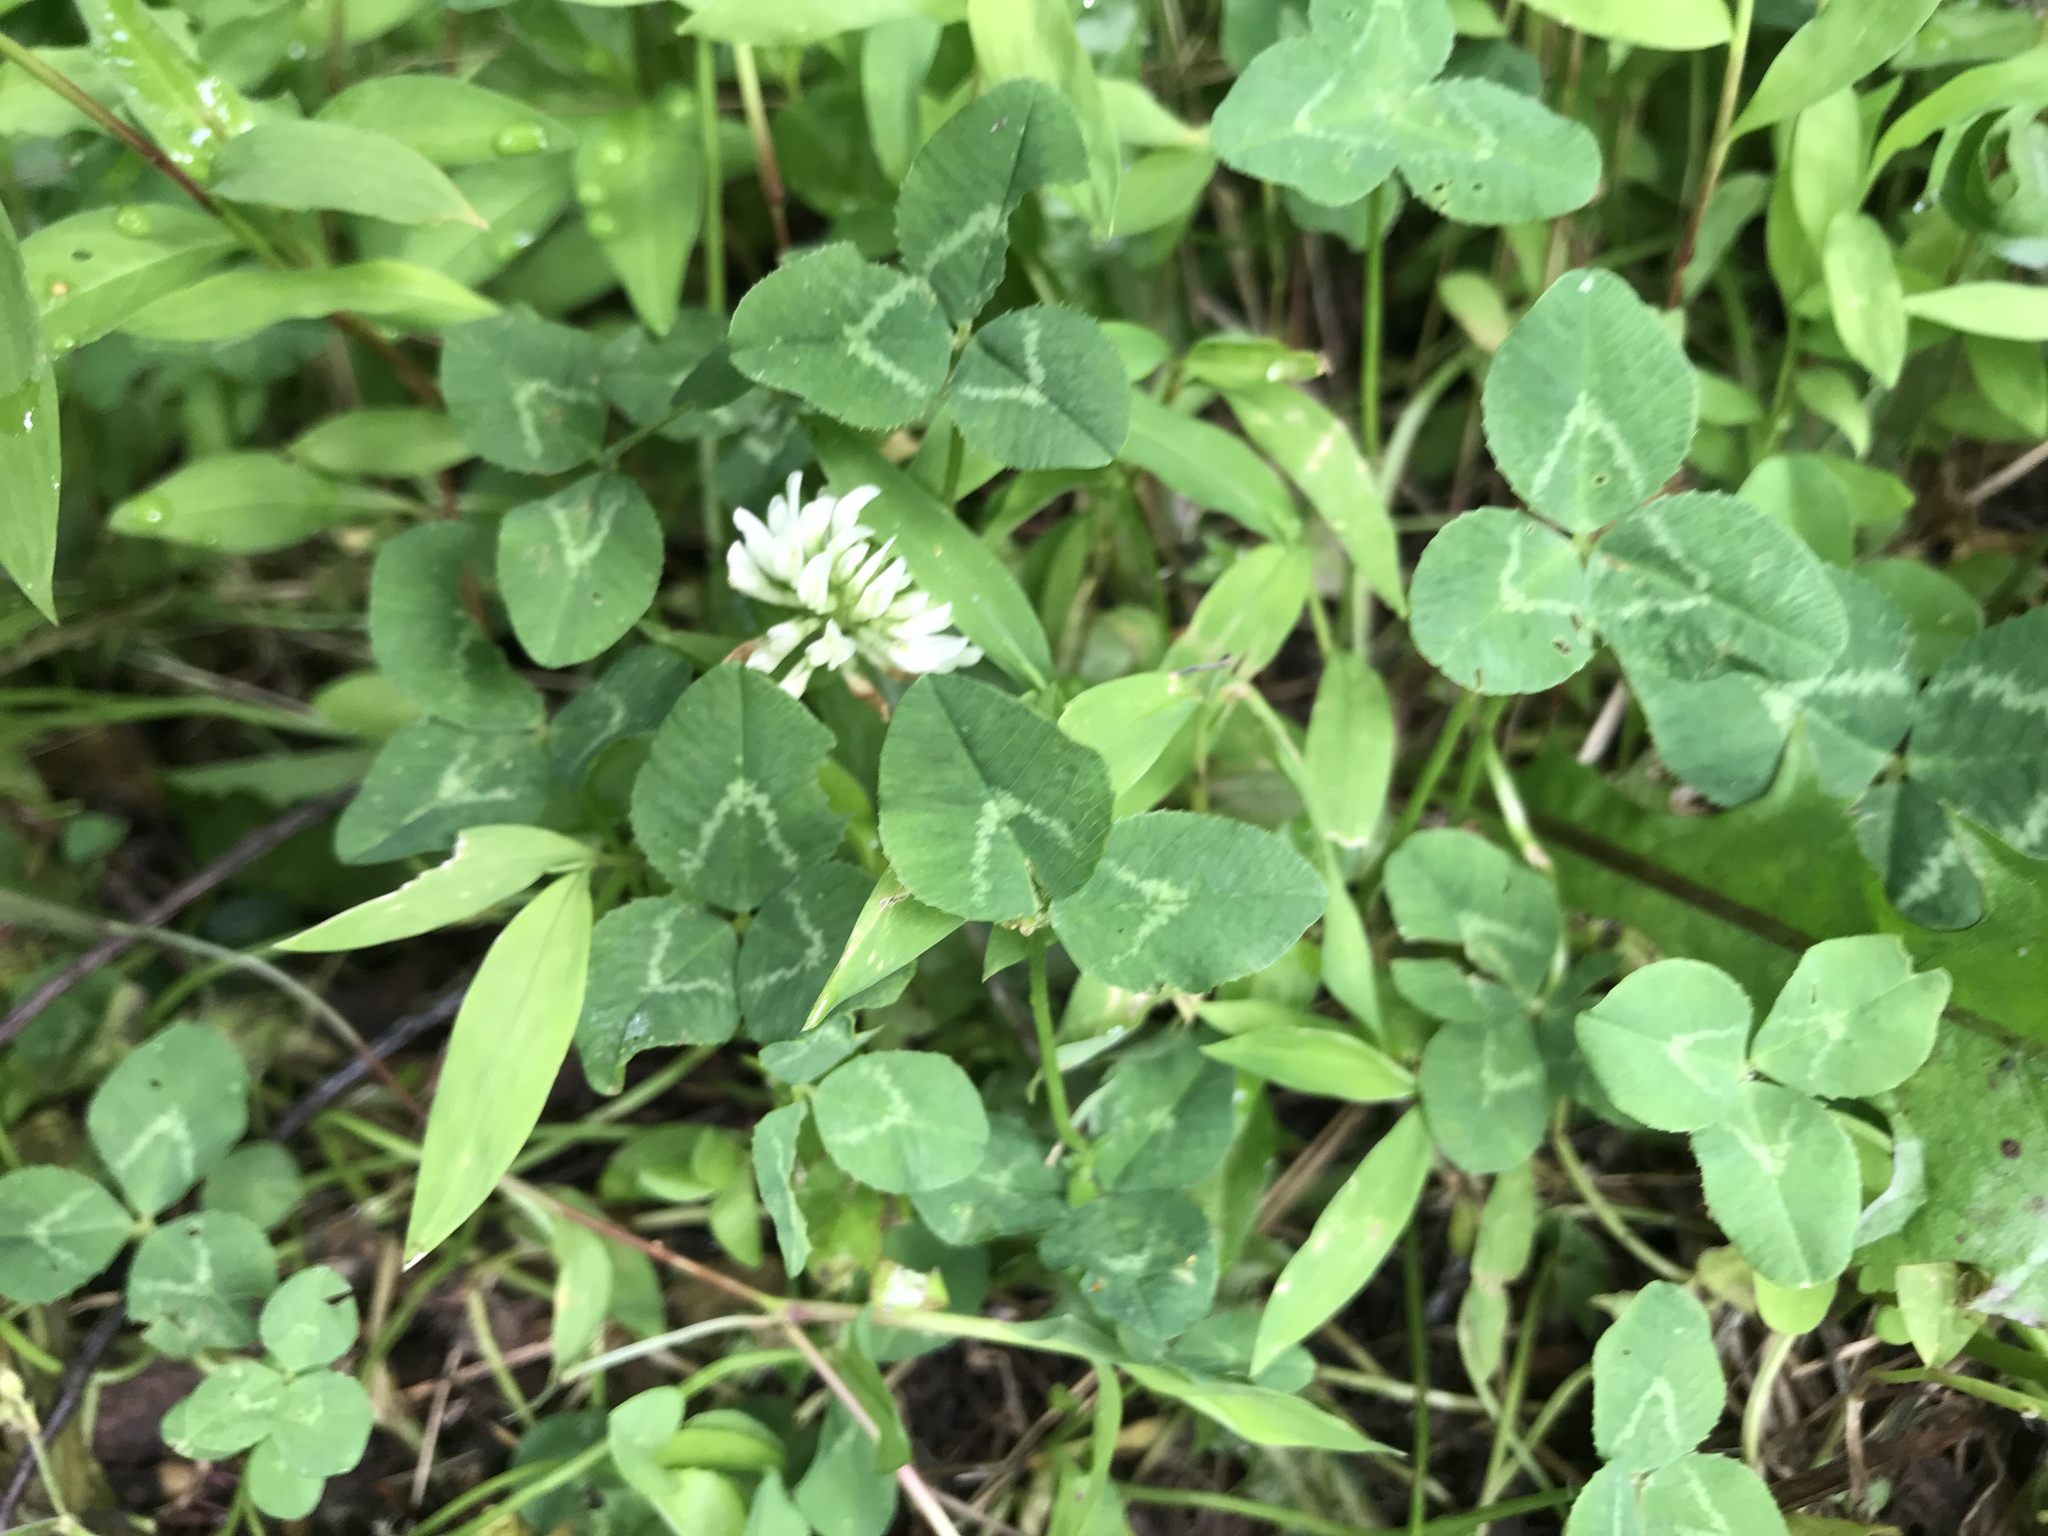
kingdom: Plantae
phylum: Tracheophyta
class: Magnoliopsida
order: Fabales
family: Fabaceae
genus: Trifolium
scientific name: Trifolium repens
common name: White clover
